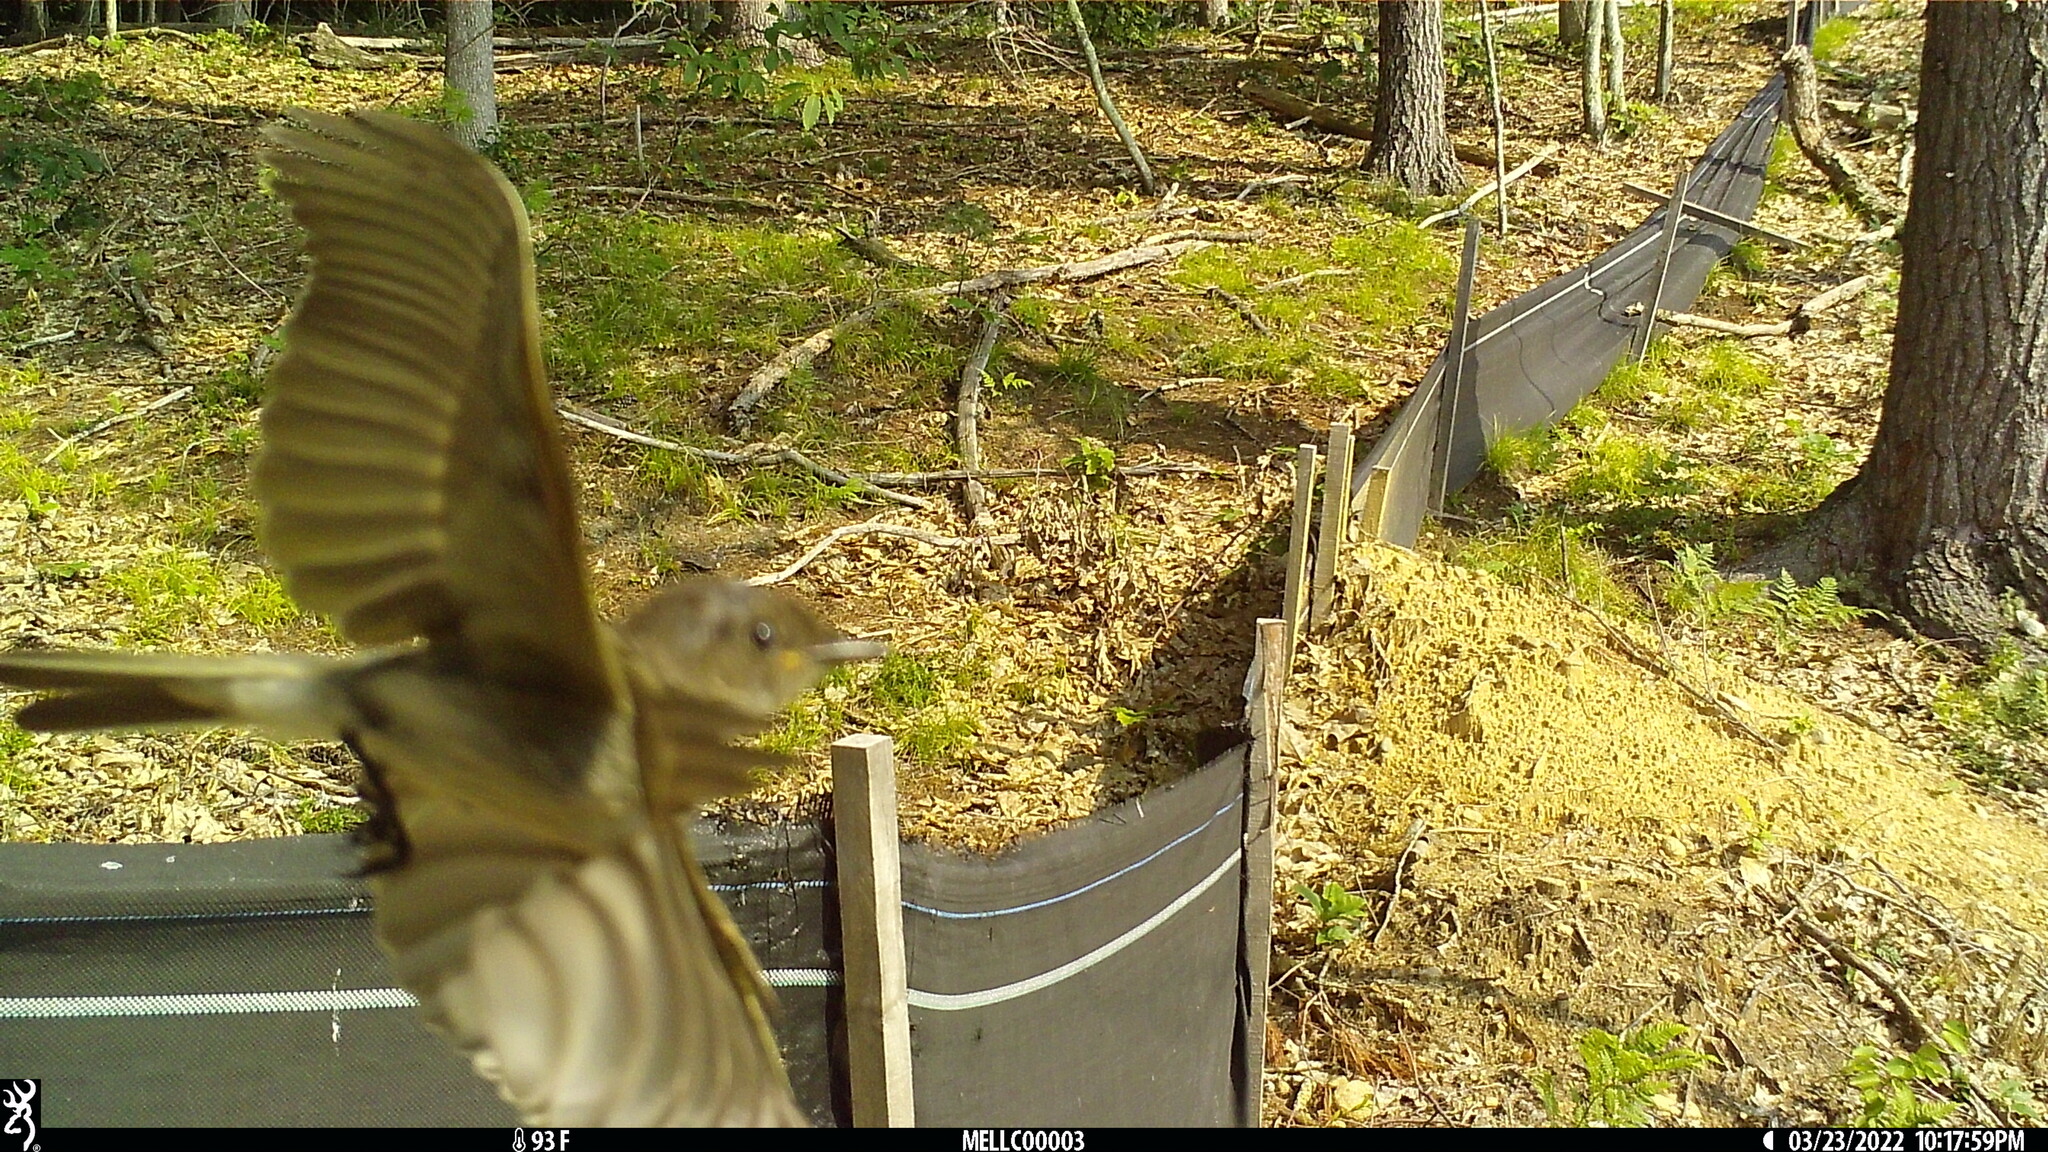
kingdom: Animalia
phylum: Chordata
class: Aves
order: Passeriformes
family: Tyrannidae
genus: Sayornis
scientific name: Sayornis phoebe
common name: Eastern phoebe
